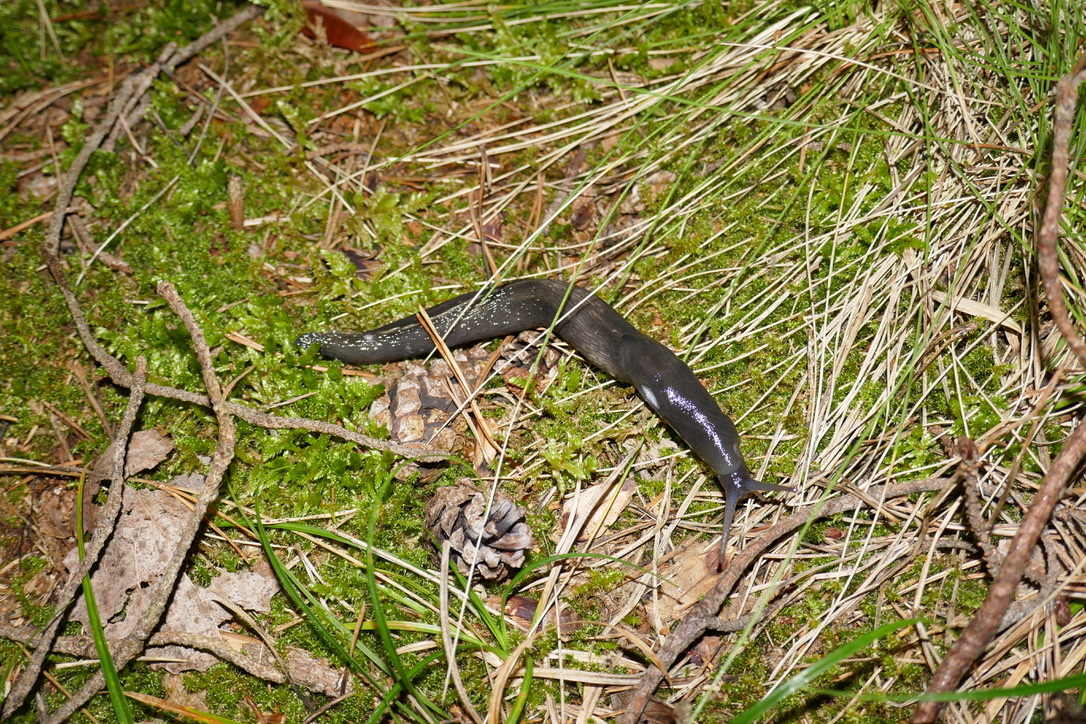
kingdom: Animalia
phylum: Mollusca
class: Gastropoda
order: Stylommatophora
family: Limacidae
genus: Limax
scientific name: Limax cinereoniger
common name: Ash-black slug
